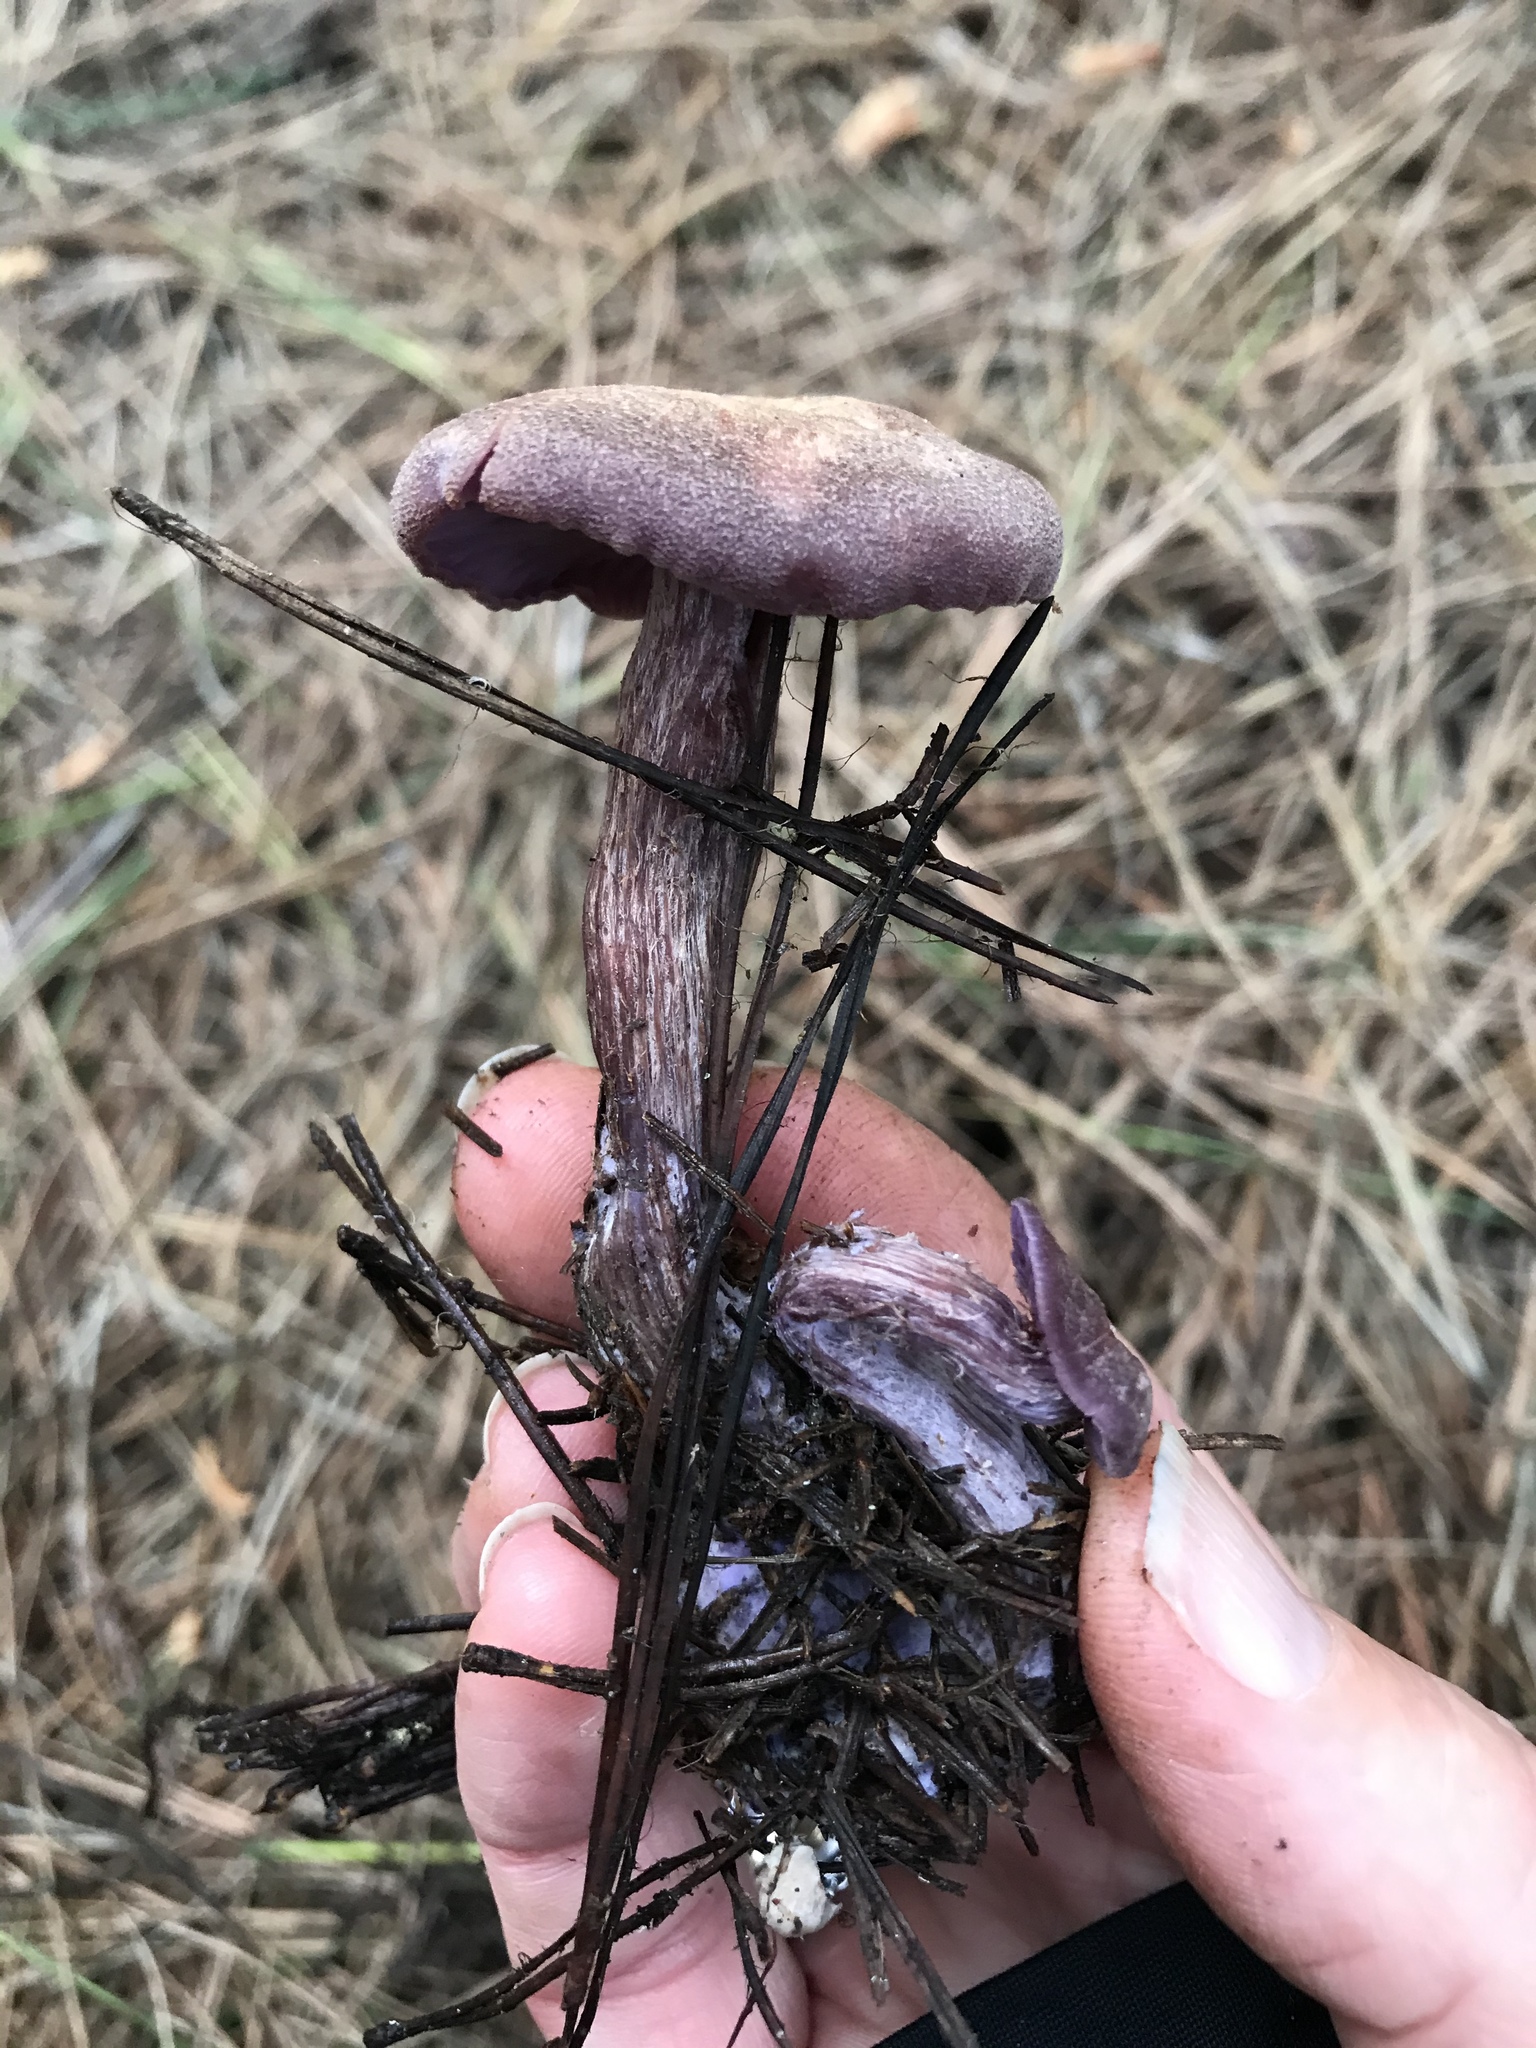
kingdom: Fungi
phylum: Basidiomycota
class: Agaricomycetes
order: Agaricales
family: Hydnangiaceae
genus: Laccaria
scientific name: Laccaria amethysteo-occidentalis
